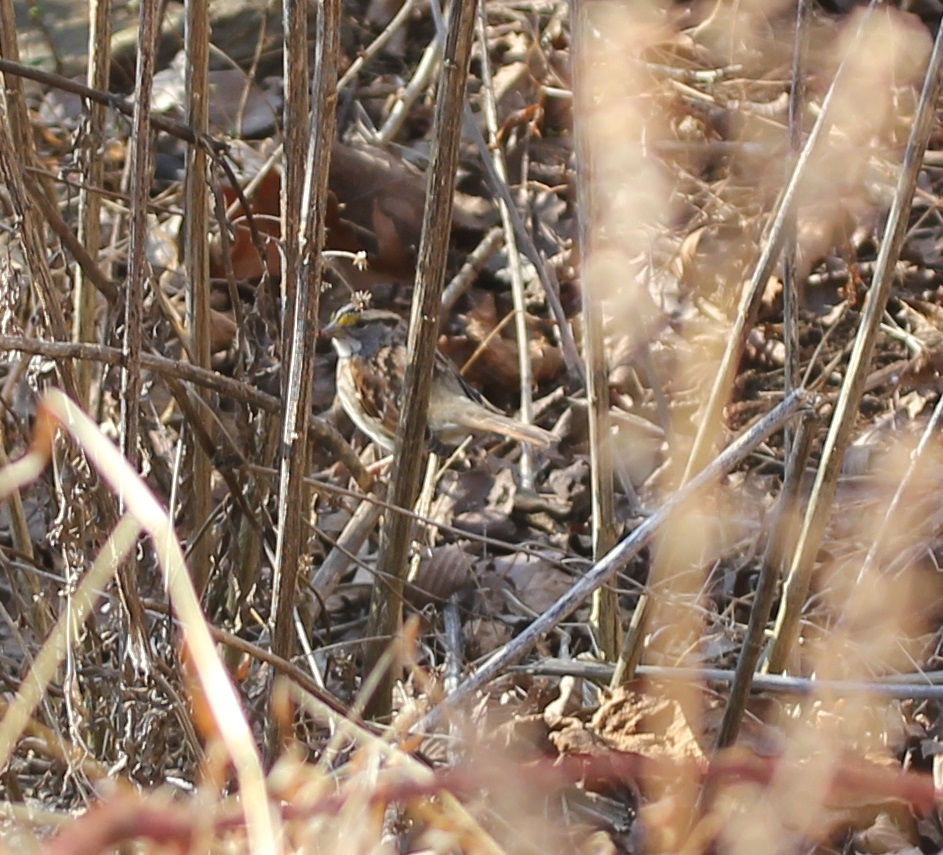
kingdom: Animalia
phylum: Chordata
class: Aves
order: Passeriformes
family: Passerellidae
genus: Zonotrichia
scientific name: Zonotrichia albicollis
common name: White-throated sparrow
